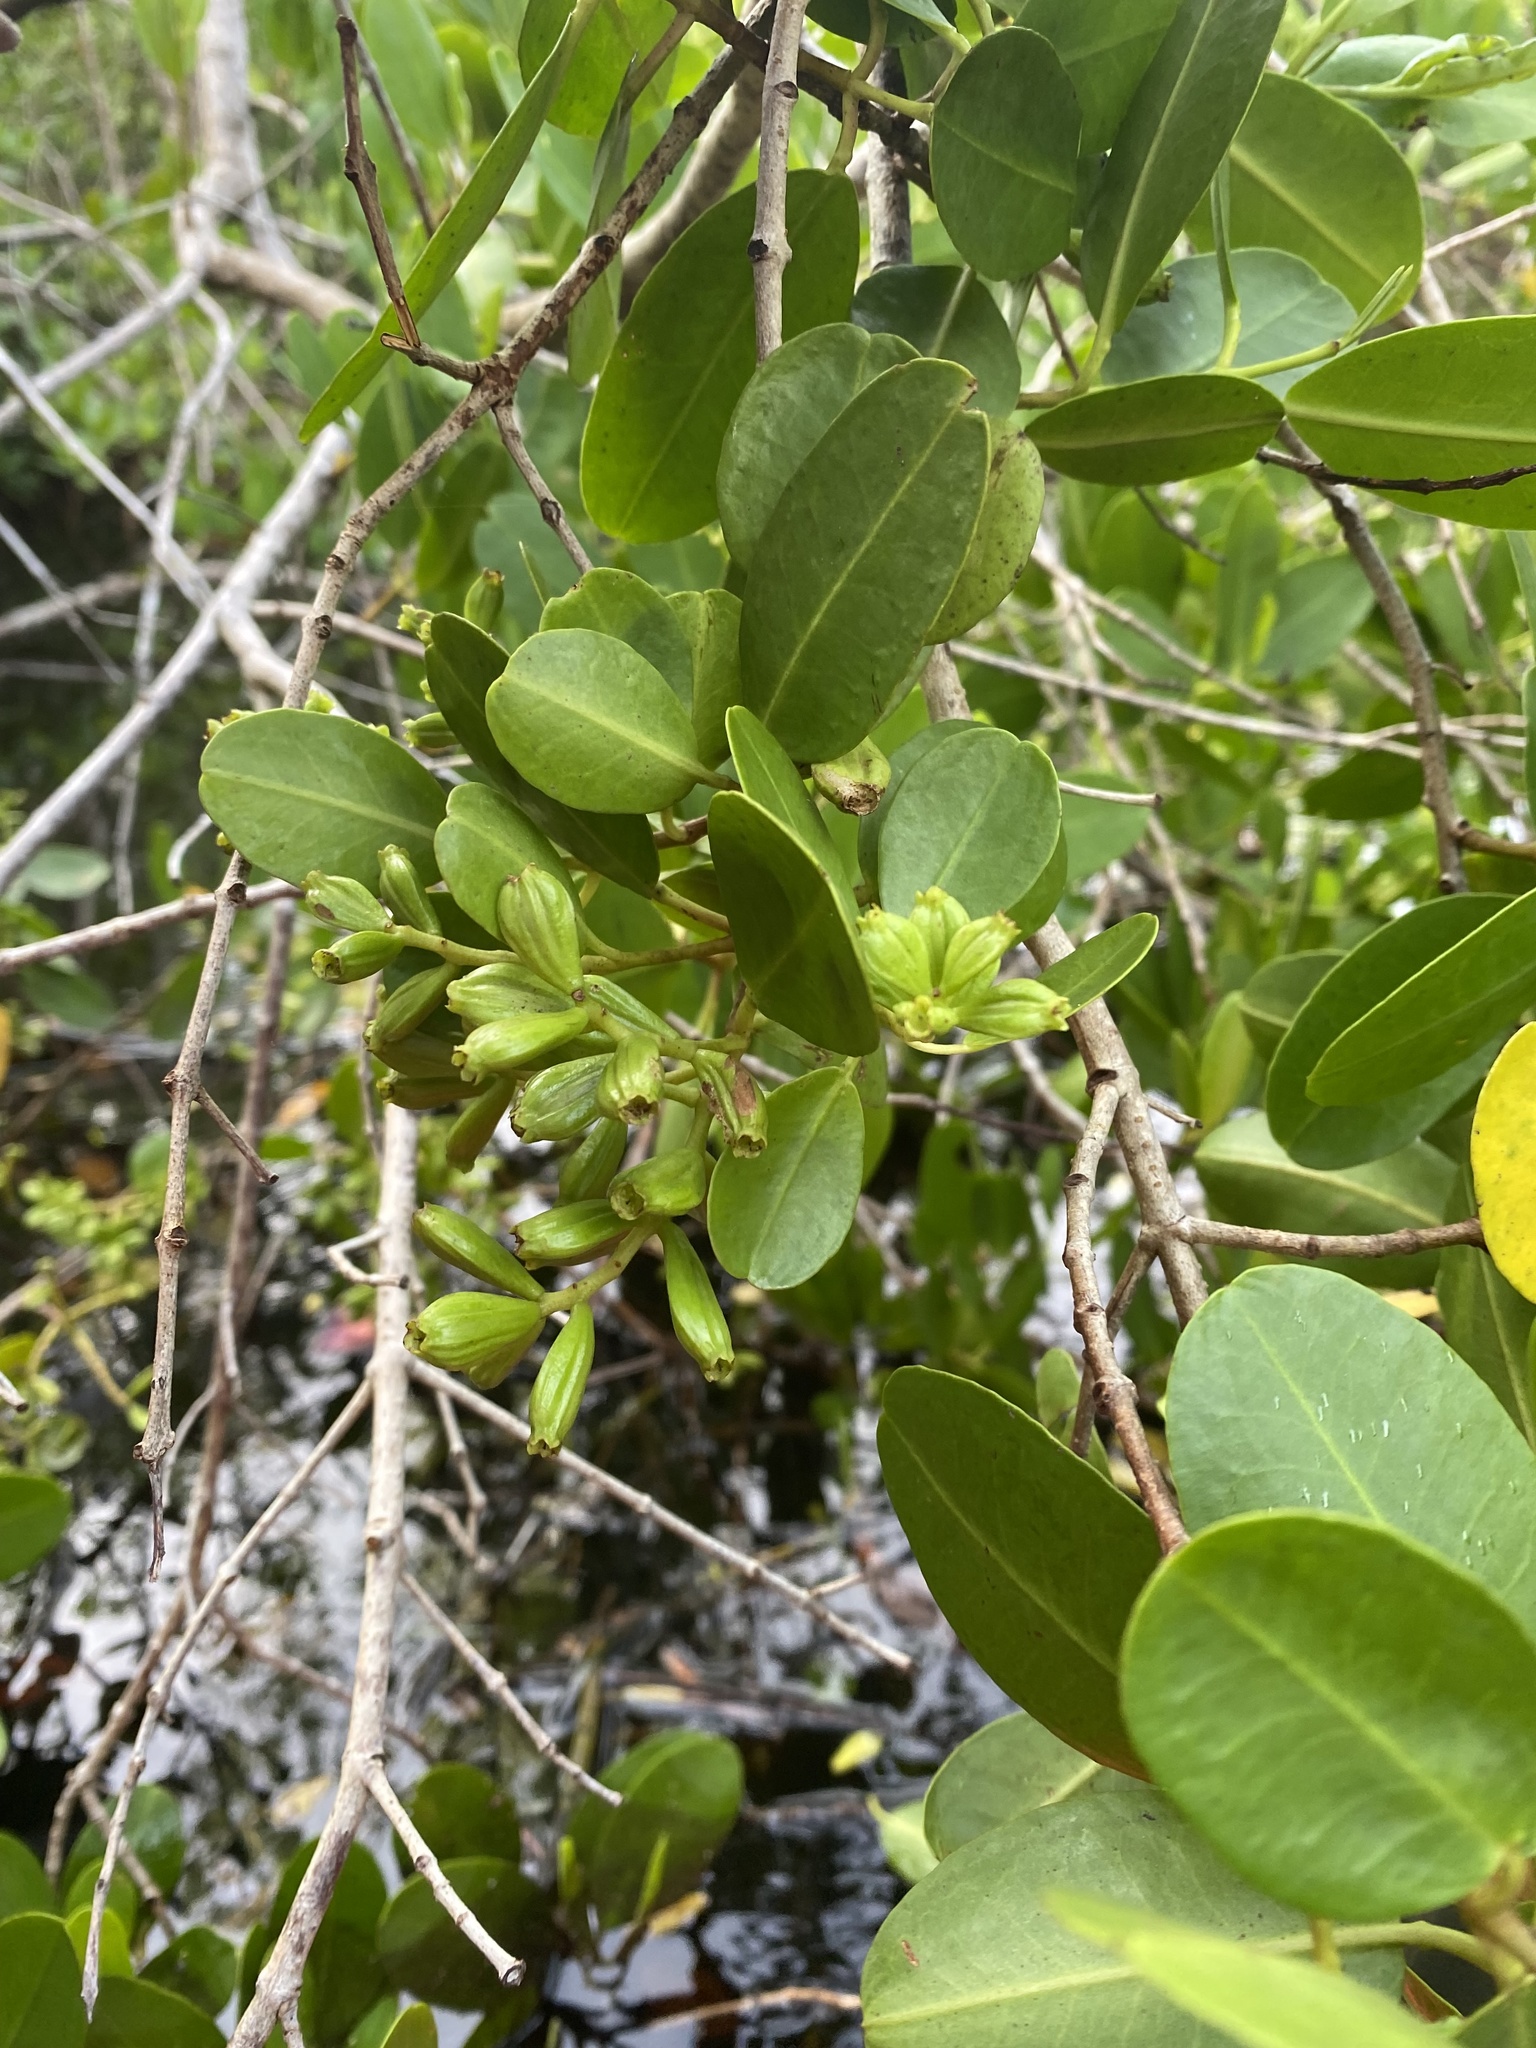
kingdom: Plantae
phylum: Tracheophyta
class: Magnoliopsida
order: Myrtales
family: Combretaceae
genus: Laguncularia
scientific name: Laguncularia racemosa
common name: White mangrove
